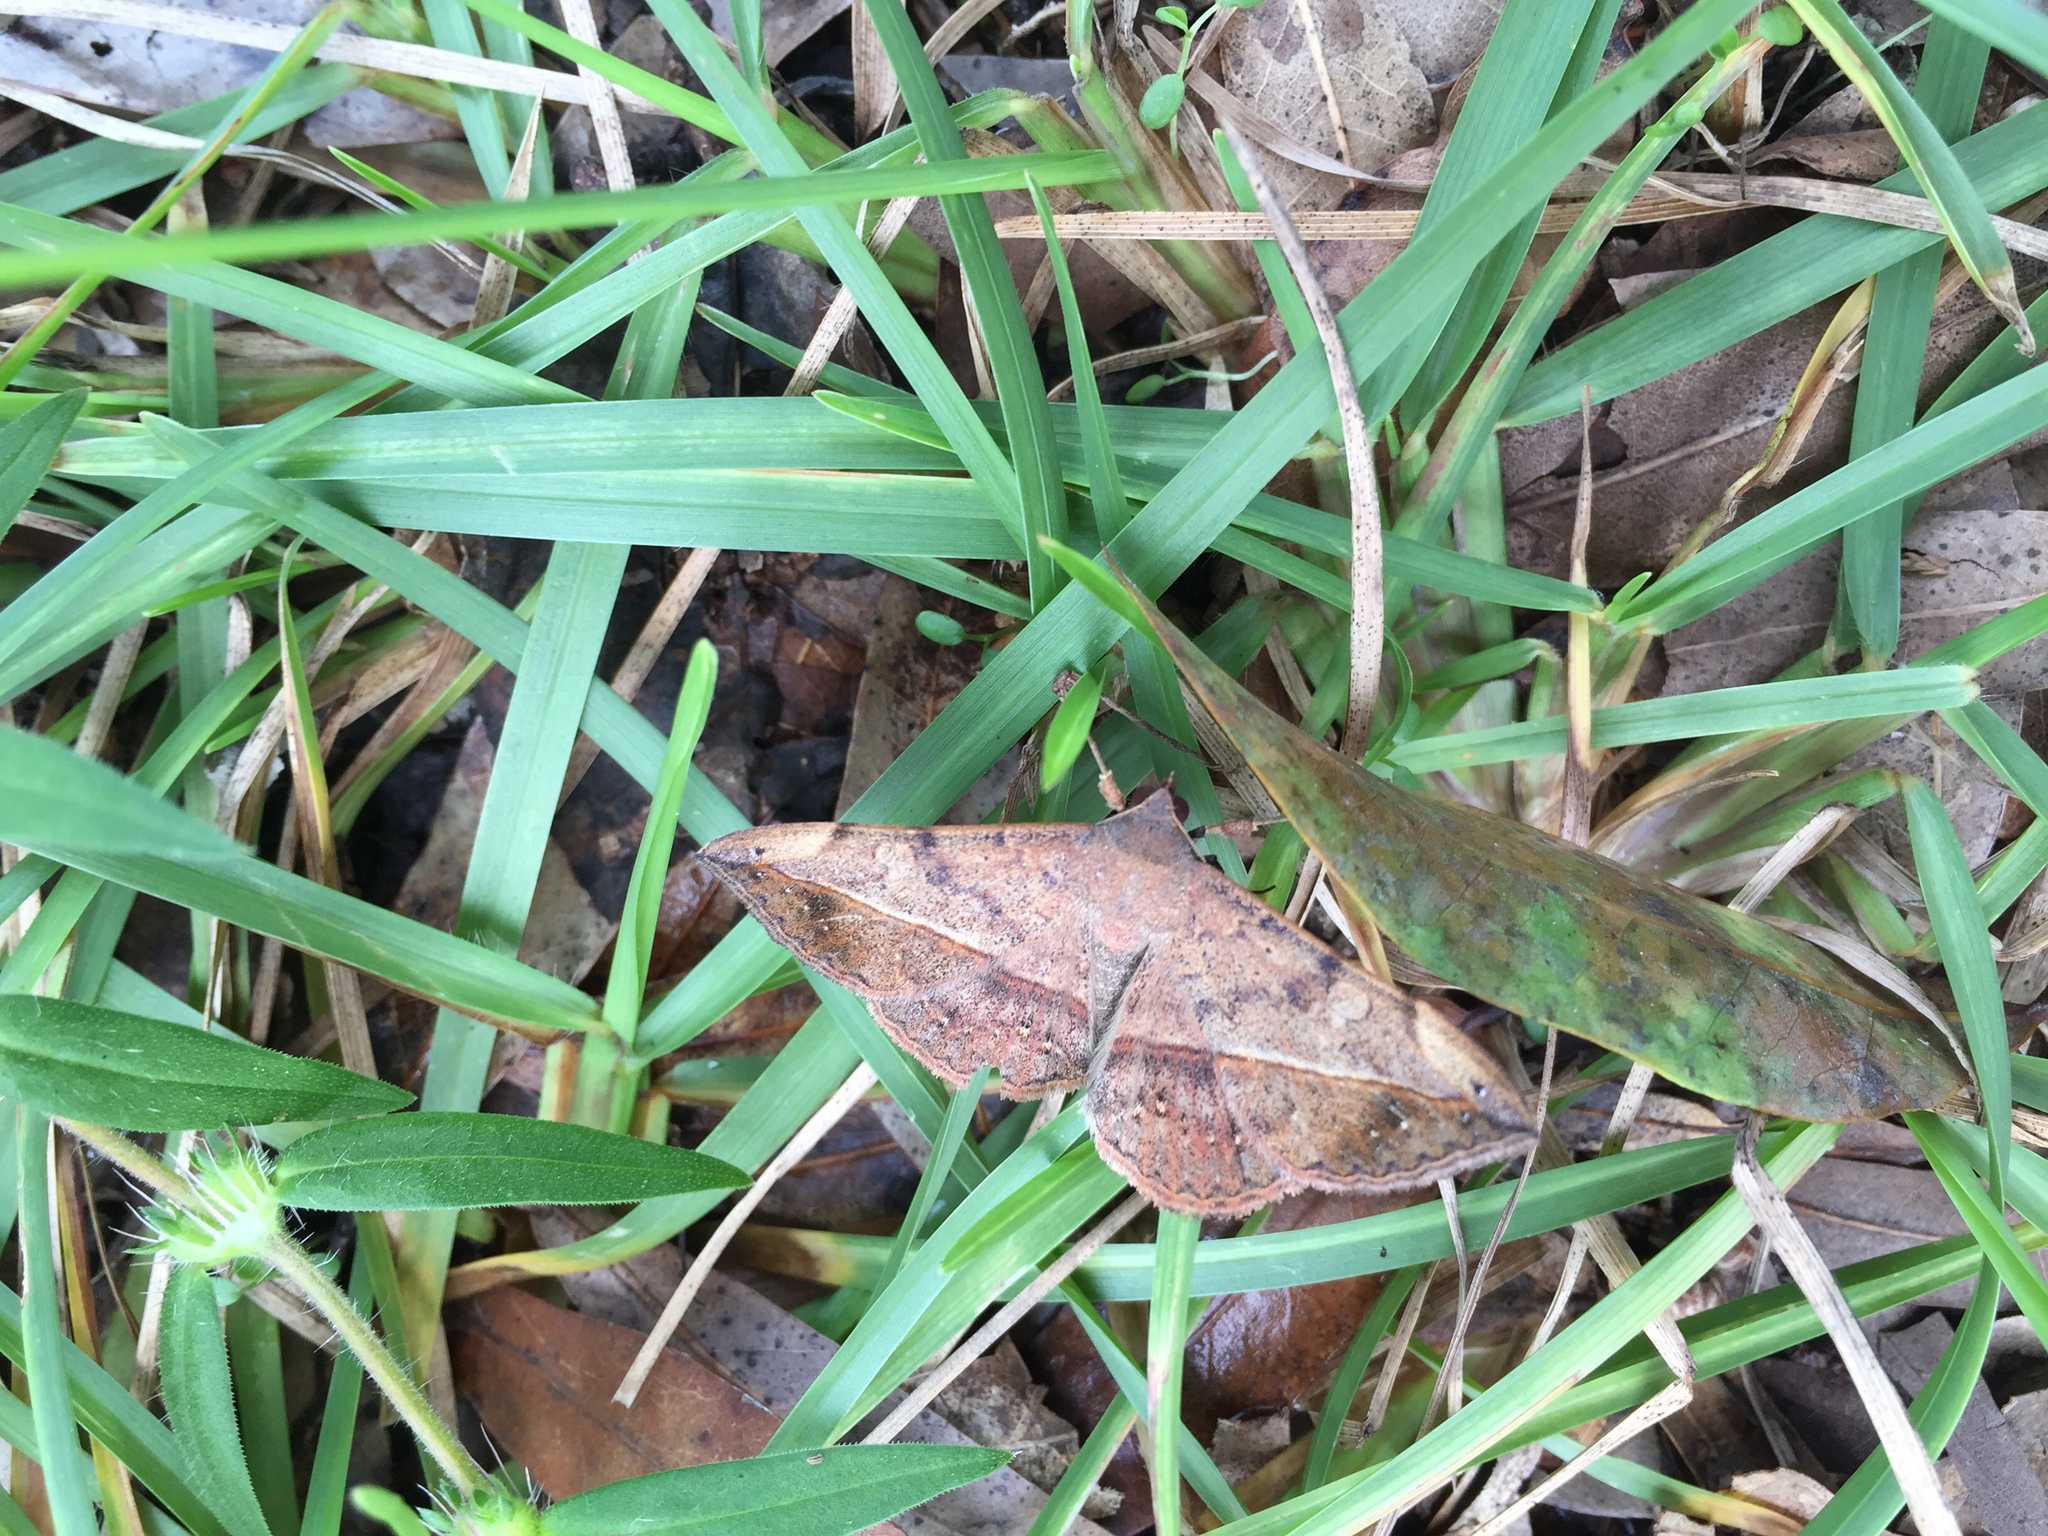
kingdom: Animalia
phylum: Arthropoda
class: Insecta
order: Lepidoptera
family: Erebidae
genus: Anticarsia
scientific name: Anticarsia gemmatalis
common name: Cutworm moth
